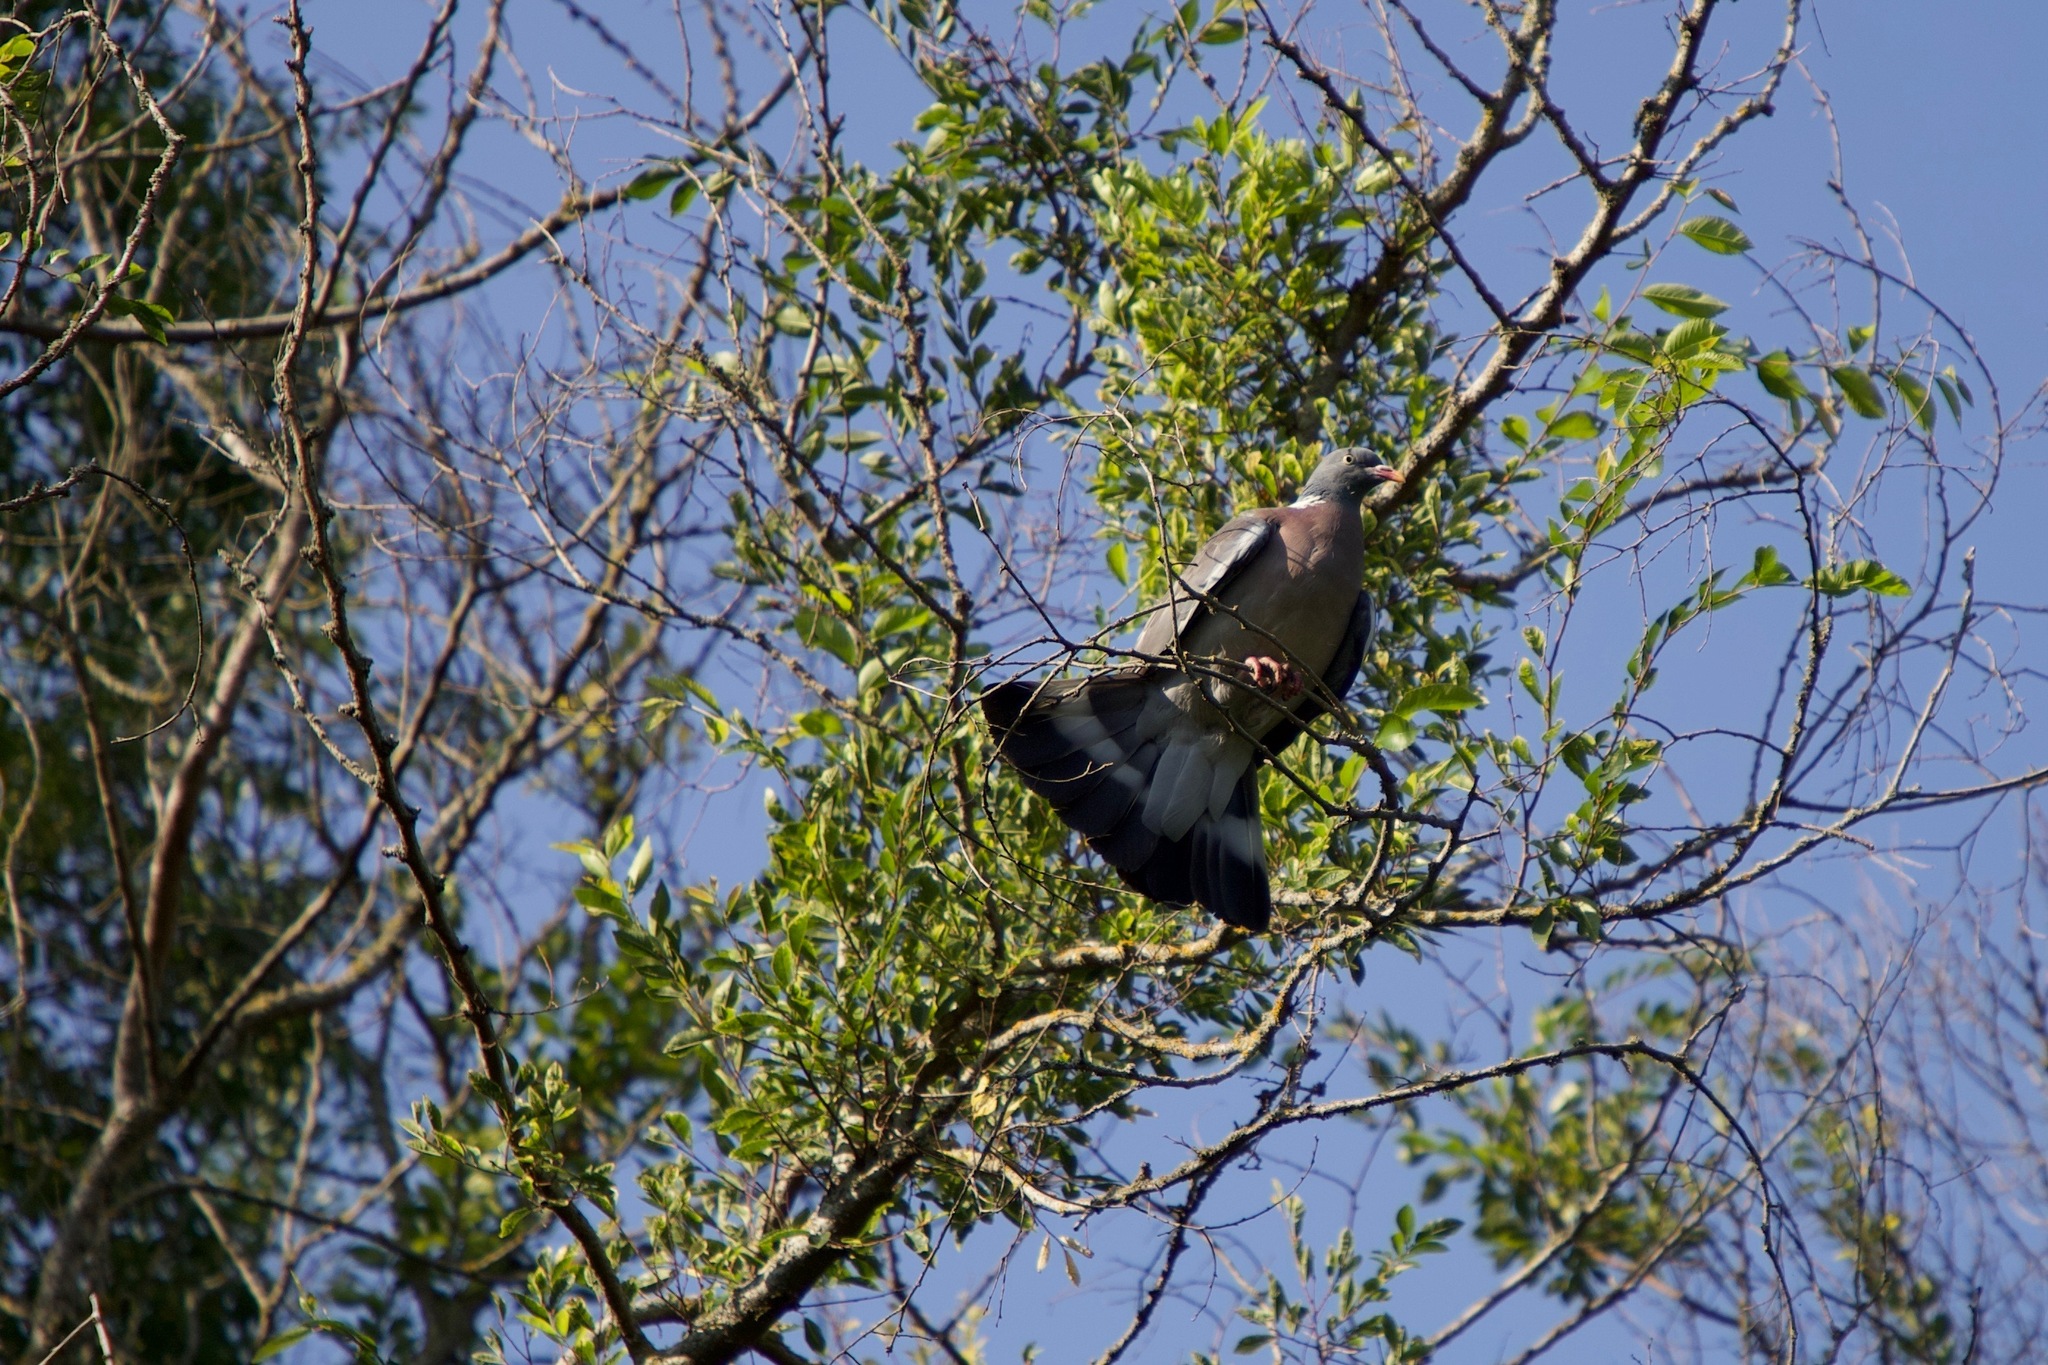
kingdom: Animalia
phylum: Chordata
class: Aves
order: Columbiformes
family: Columbidae
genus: Columba
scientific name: Columba palumbus
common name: Common wood pigeon
